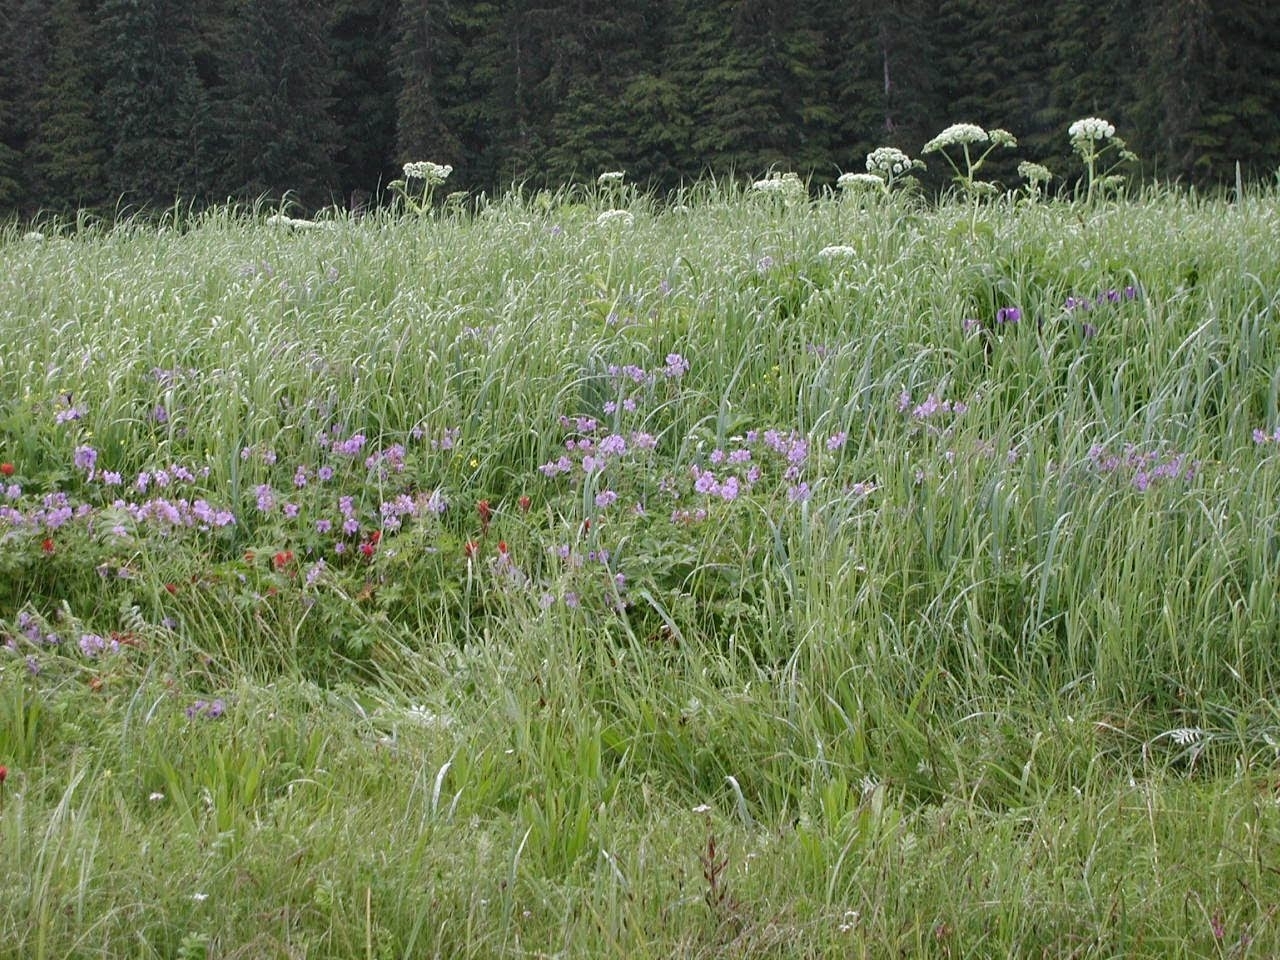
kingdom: Plantae
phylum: Tracheophyta
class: Magnoliopsida
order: Geraniales
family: Geraniaceae
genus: Geranium
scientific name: Geranium erianthum
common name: Northern crane's-bill
